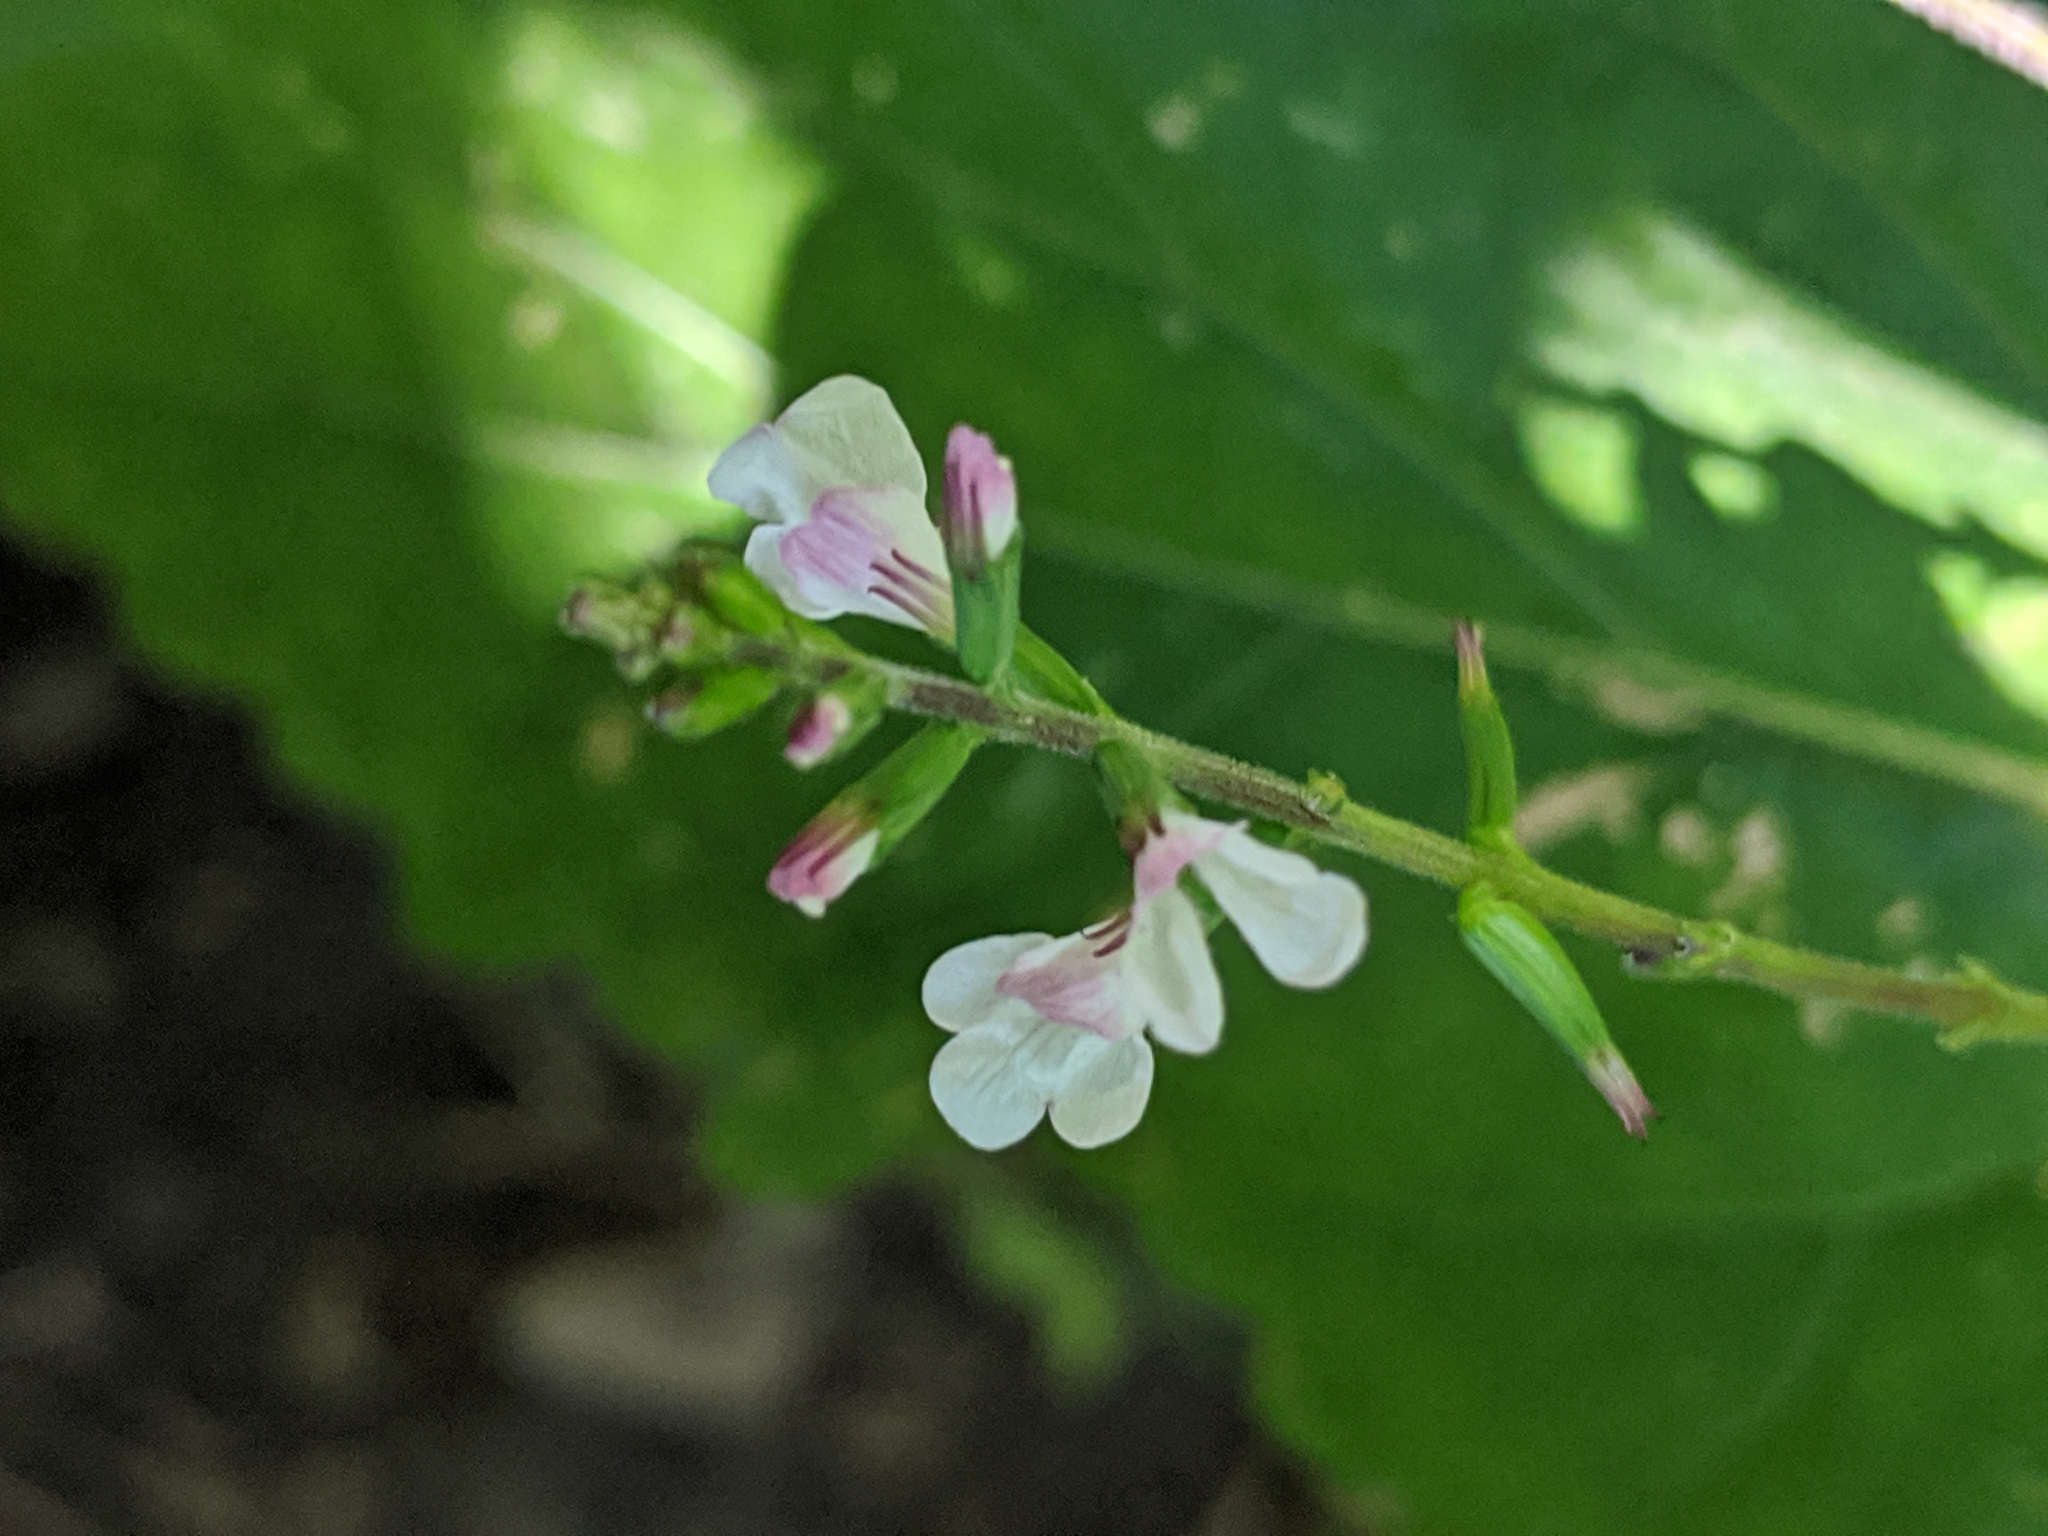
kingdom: Plantae
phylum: Tracheophyta
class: Magnoliopsida
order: Lamiales
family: Phrymaceae
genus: Phryma
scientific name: Phryma leptostachya
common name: American lopseed
